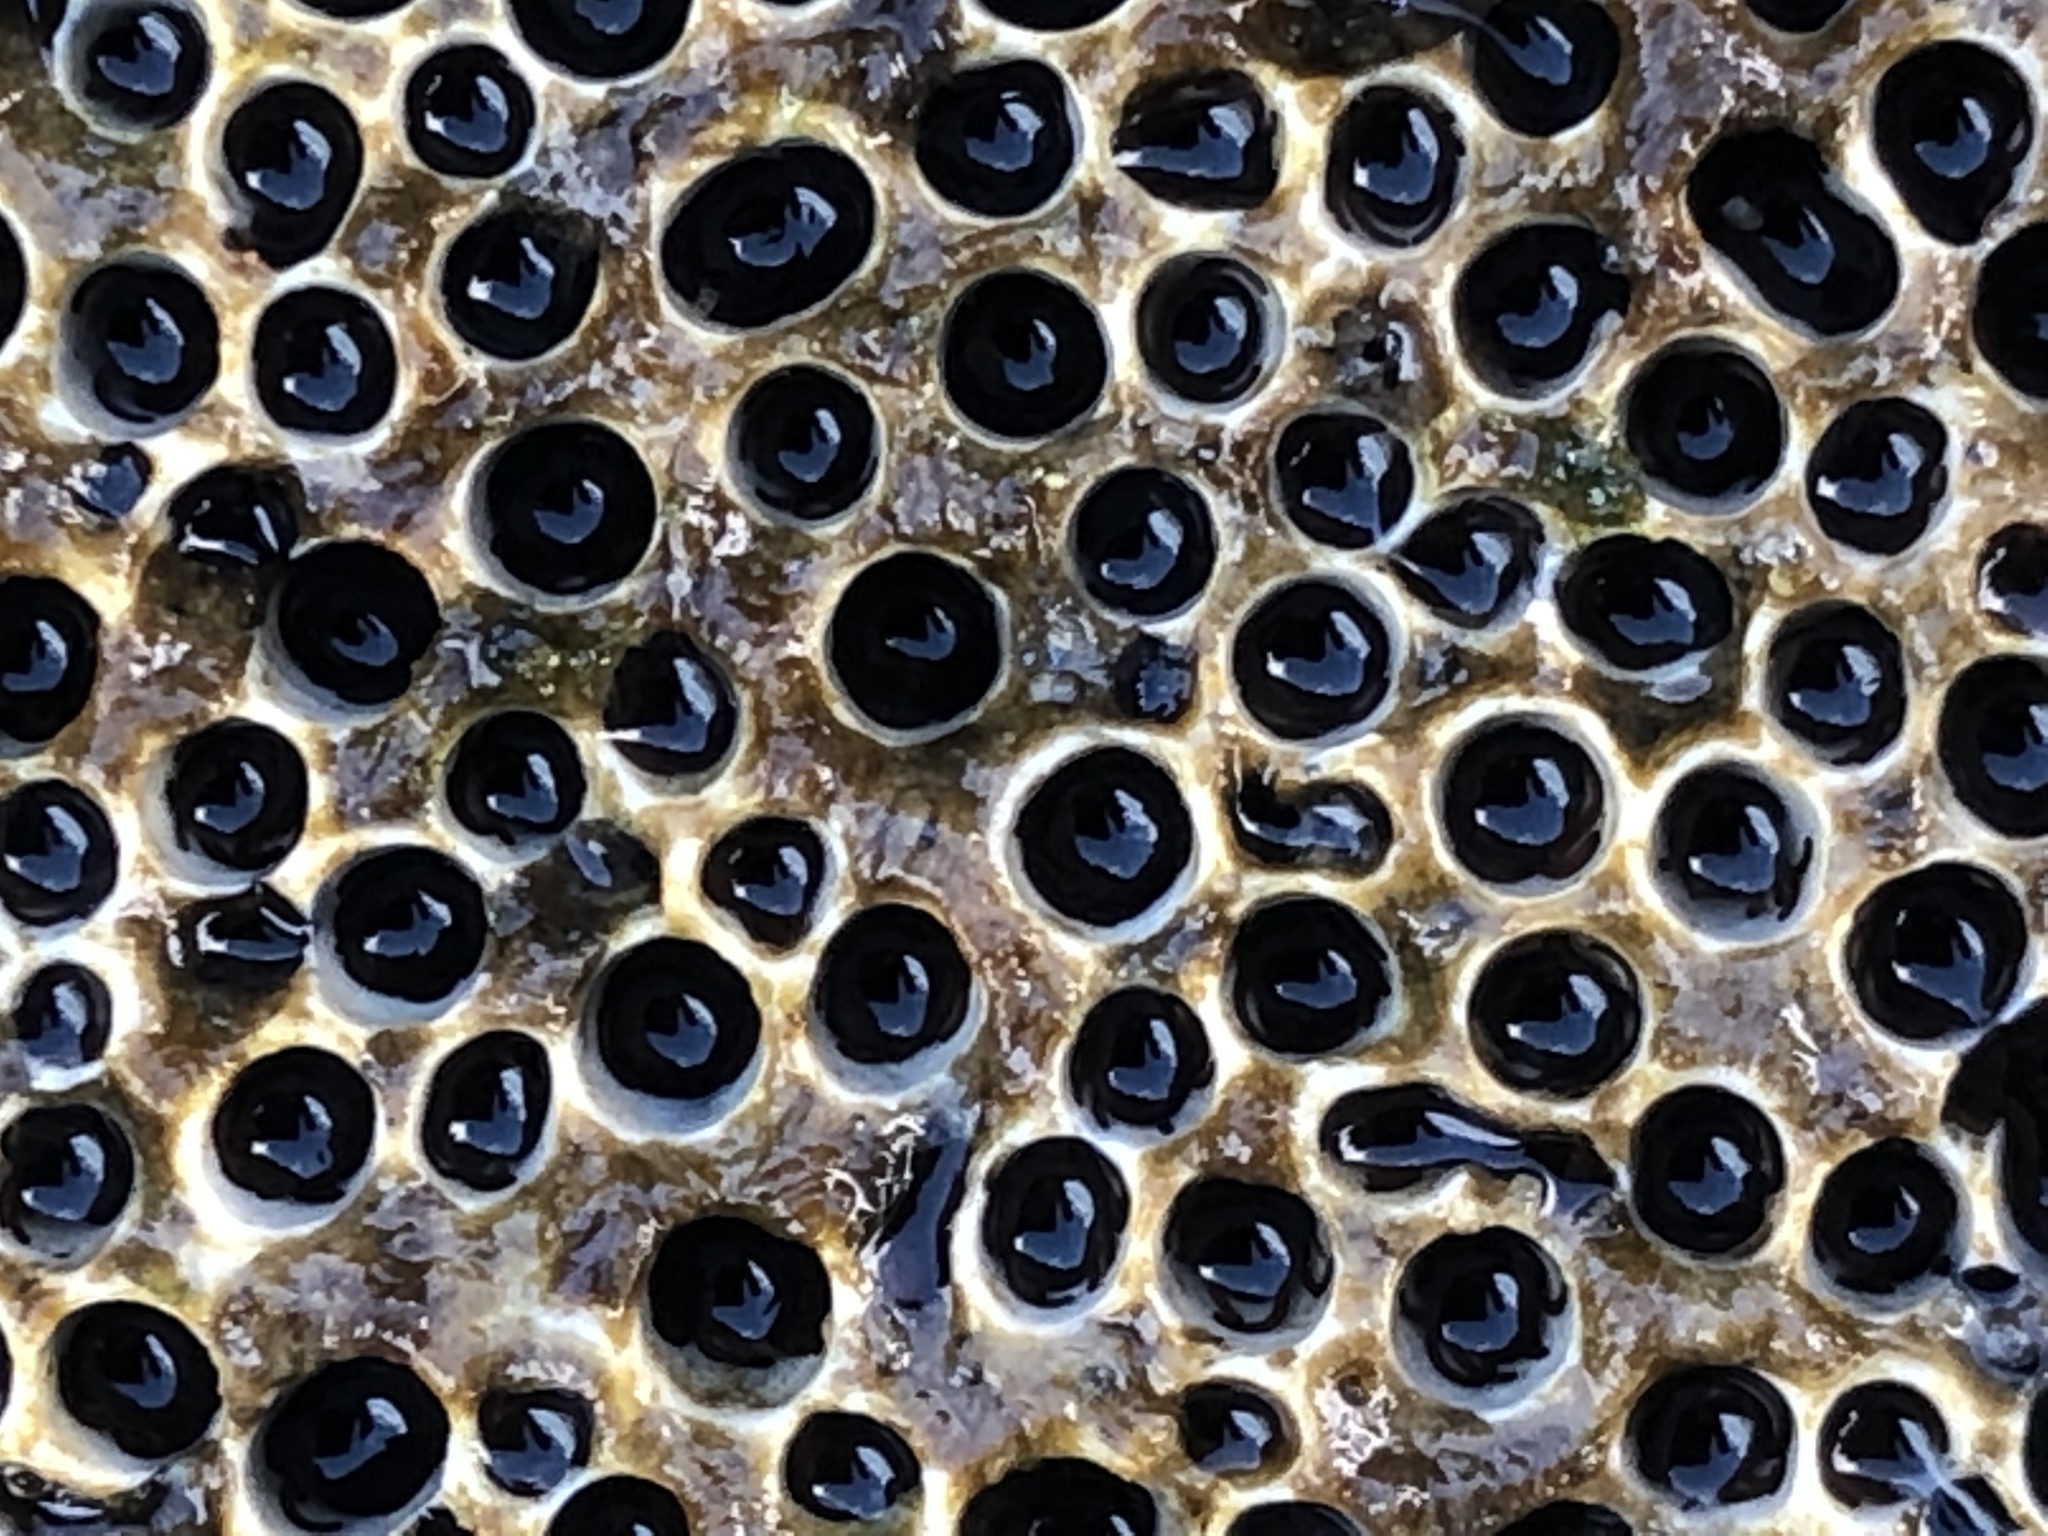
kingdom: Animalia
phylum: Annelida
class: Polychaeta
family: Cirratulidae
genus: Dodecaceria
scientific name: Dodecaceria pacifica
